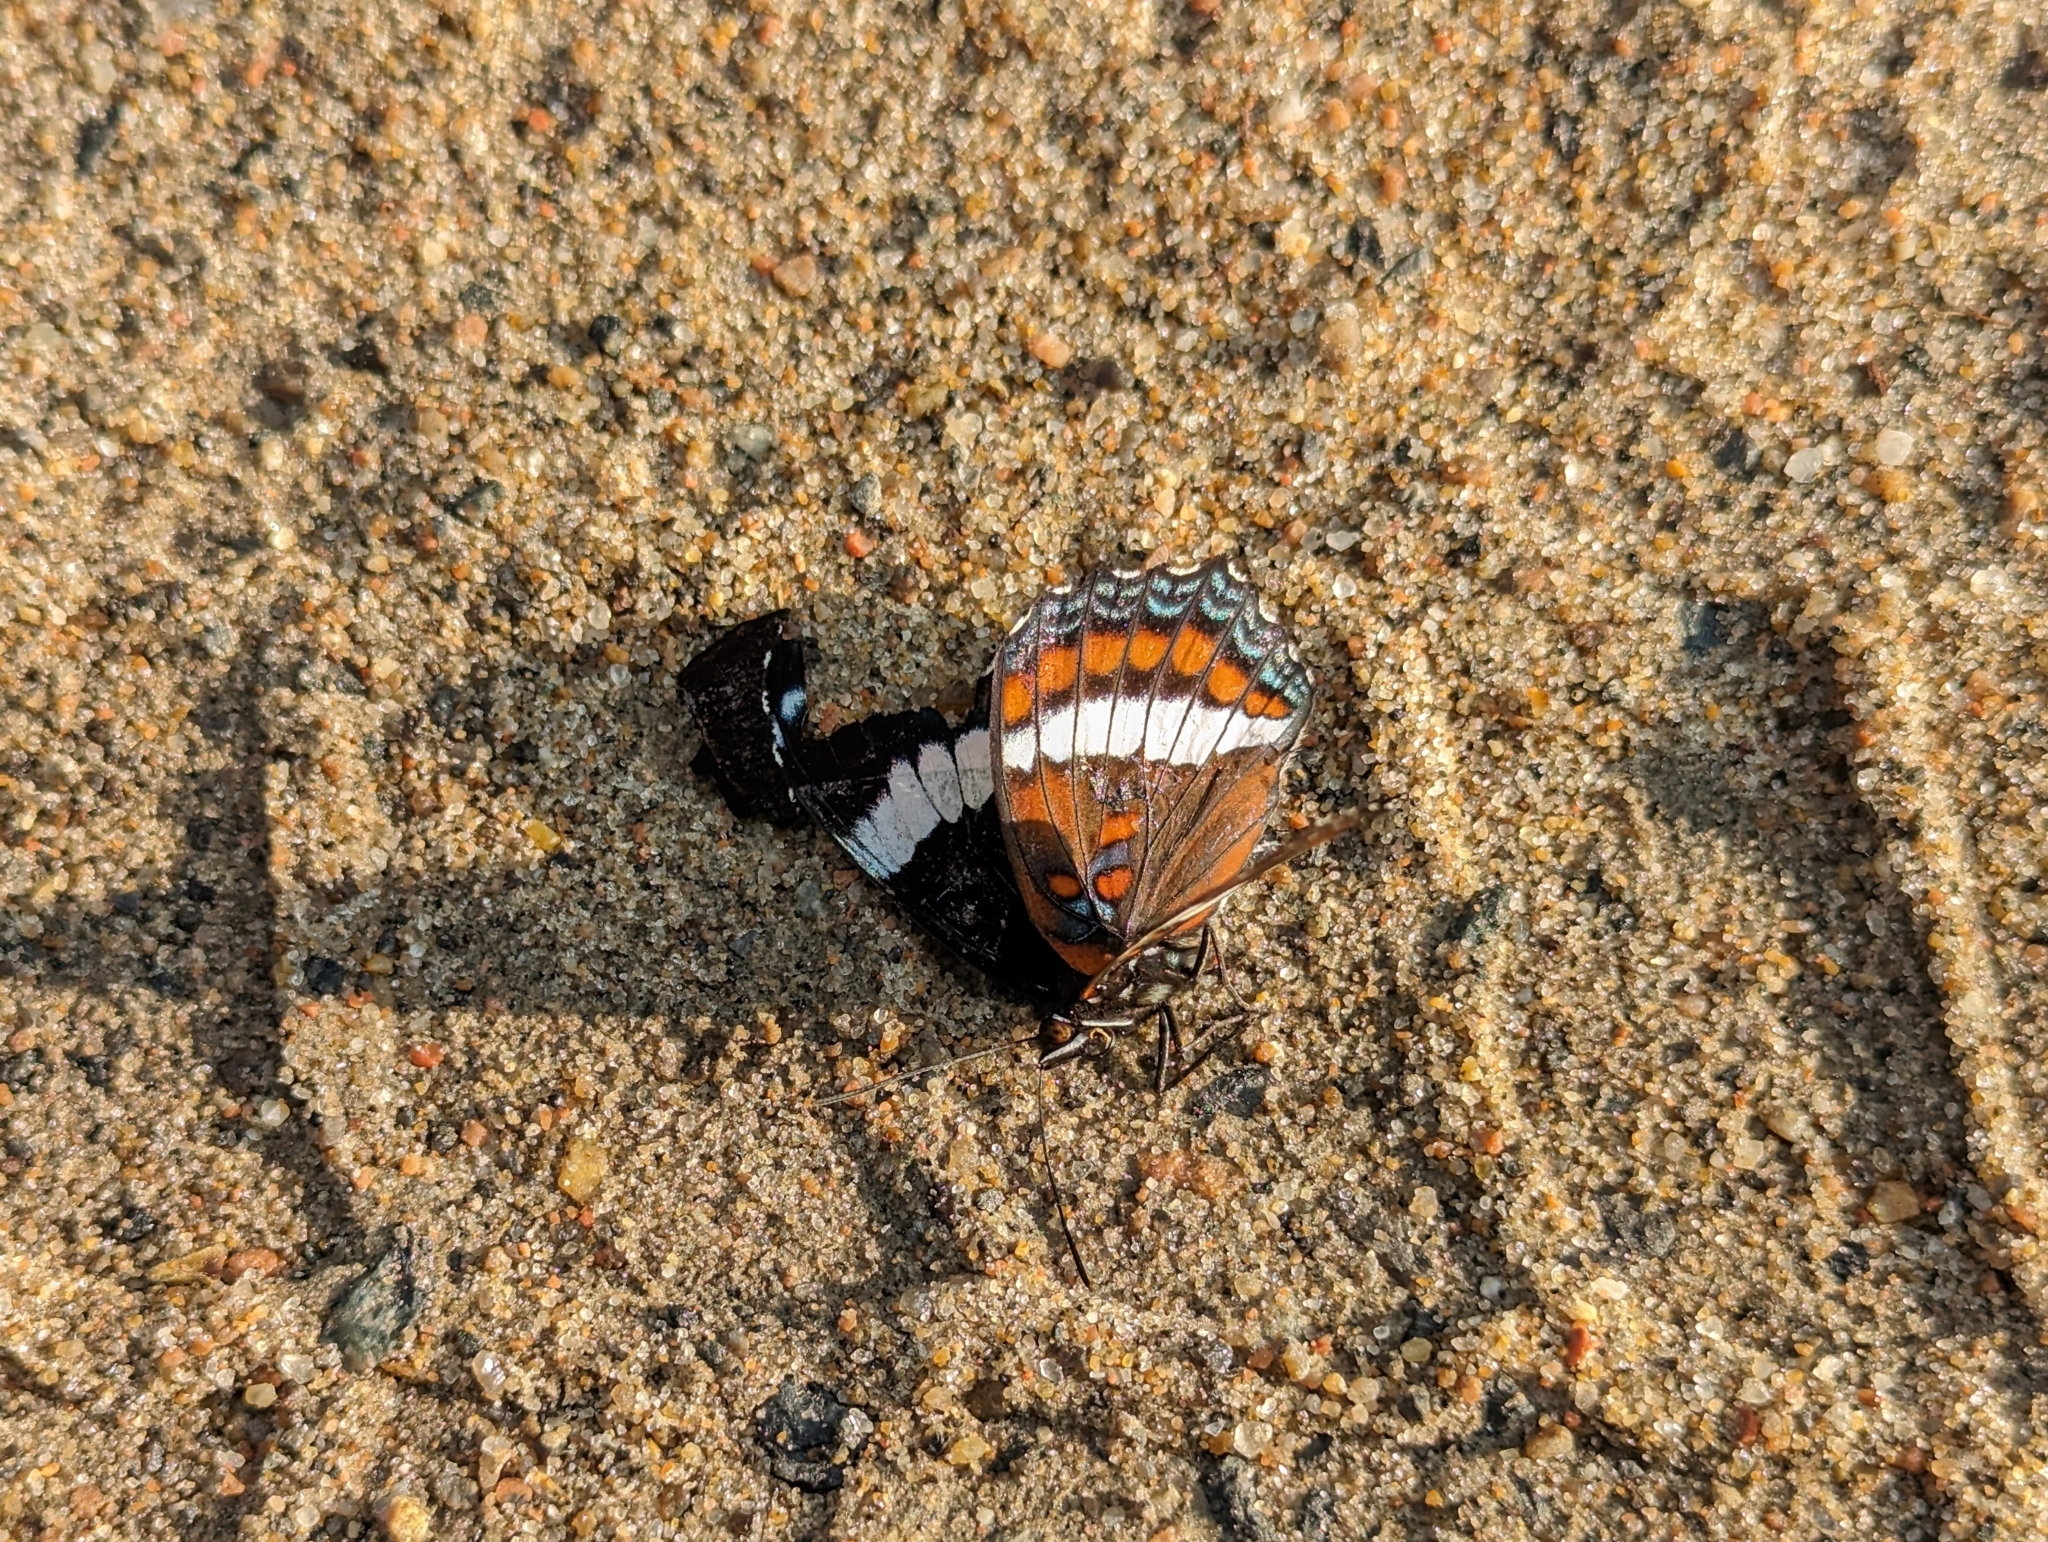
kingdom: Animalia
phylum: Arthropoda
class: Insecta
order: Lepidoptera
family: Nymphalidae
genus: Limenitis
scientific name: Limenitis arthemis
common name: Red-spotted admiral
